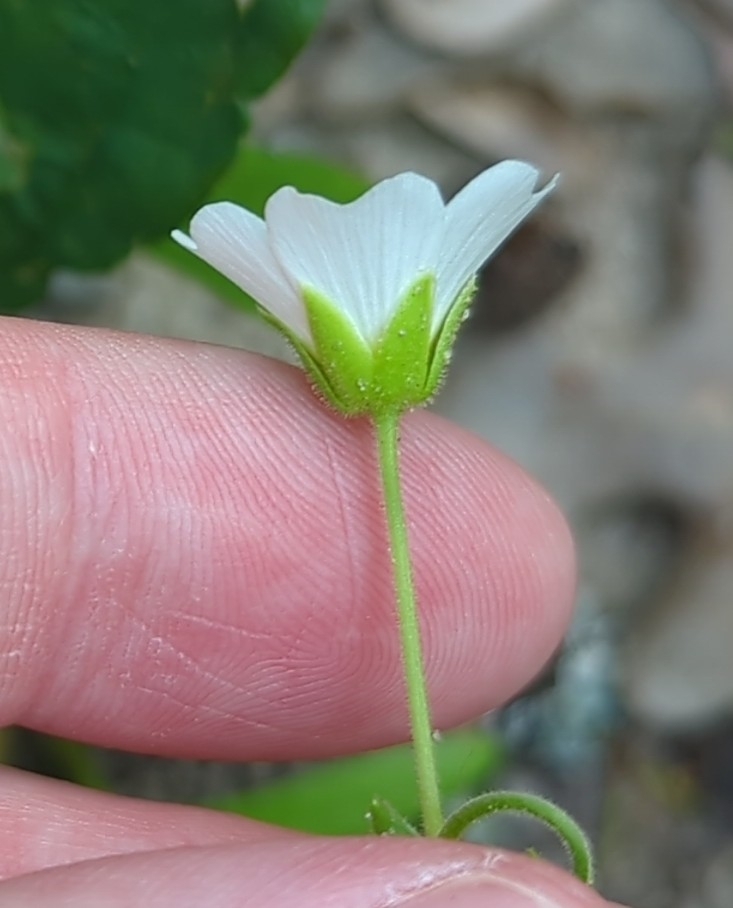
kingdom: Plantae
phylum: Tracheophyta
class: Magnoliopsida
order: Caryophyllales
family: Caryophyllaceae
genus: Geocarpon
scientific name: Geocarpon nuttallii
